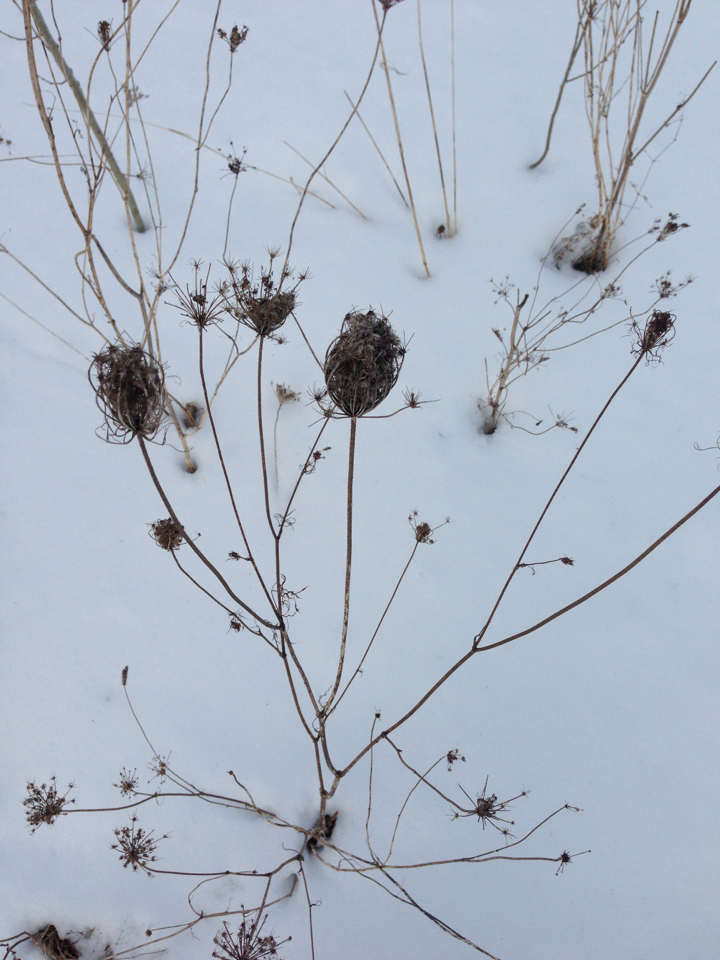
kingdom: Plantae
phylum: Tracheophyta
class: Magnoliopsida
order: Apiales
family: Apiaceae
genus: Daucus
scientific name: Daucus carota
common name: Wild carrot
